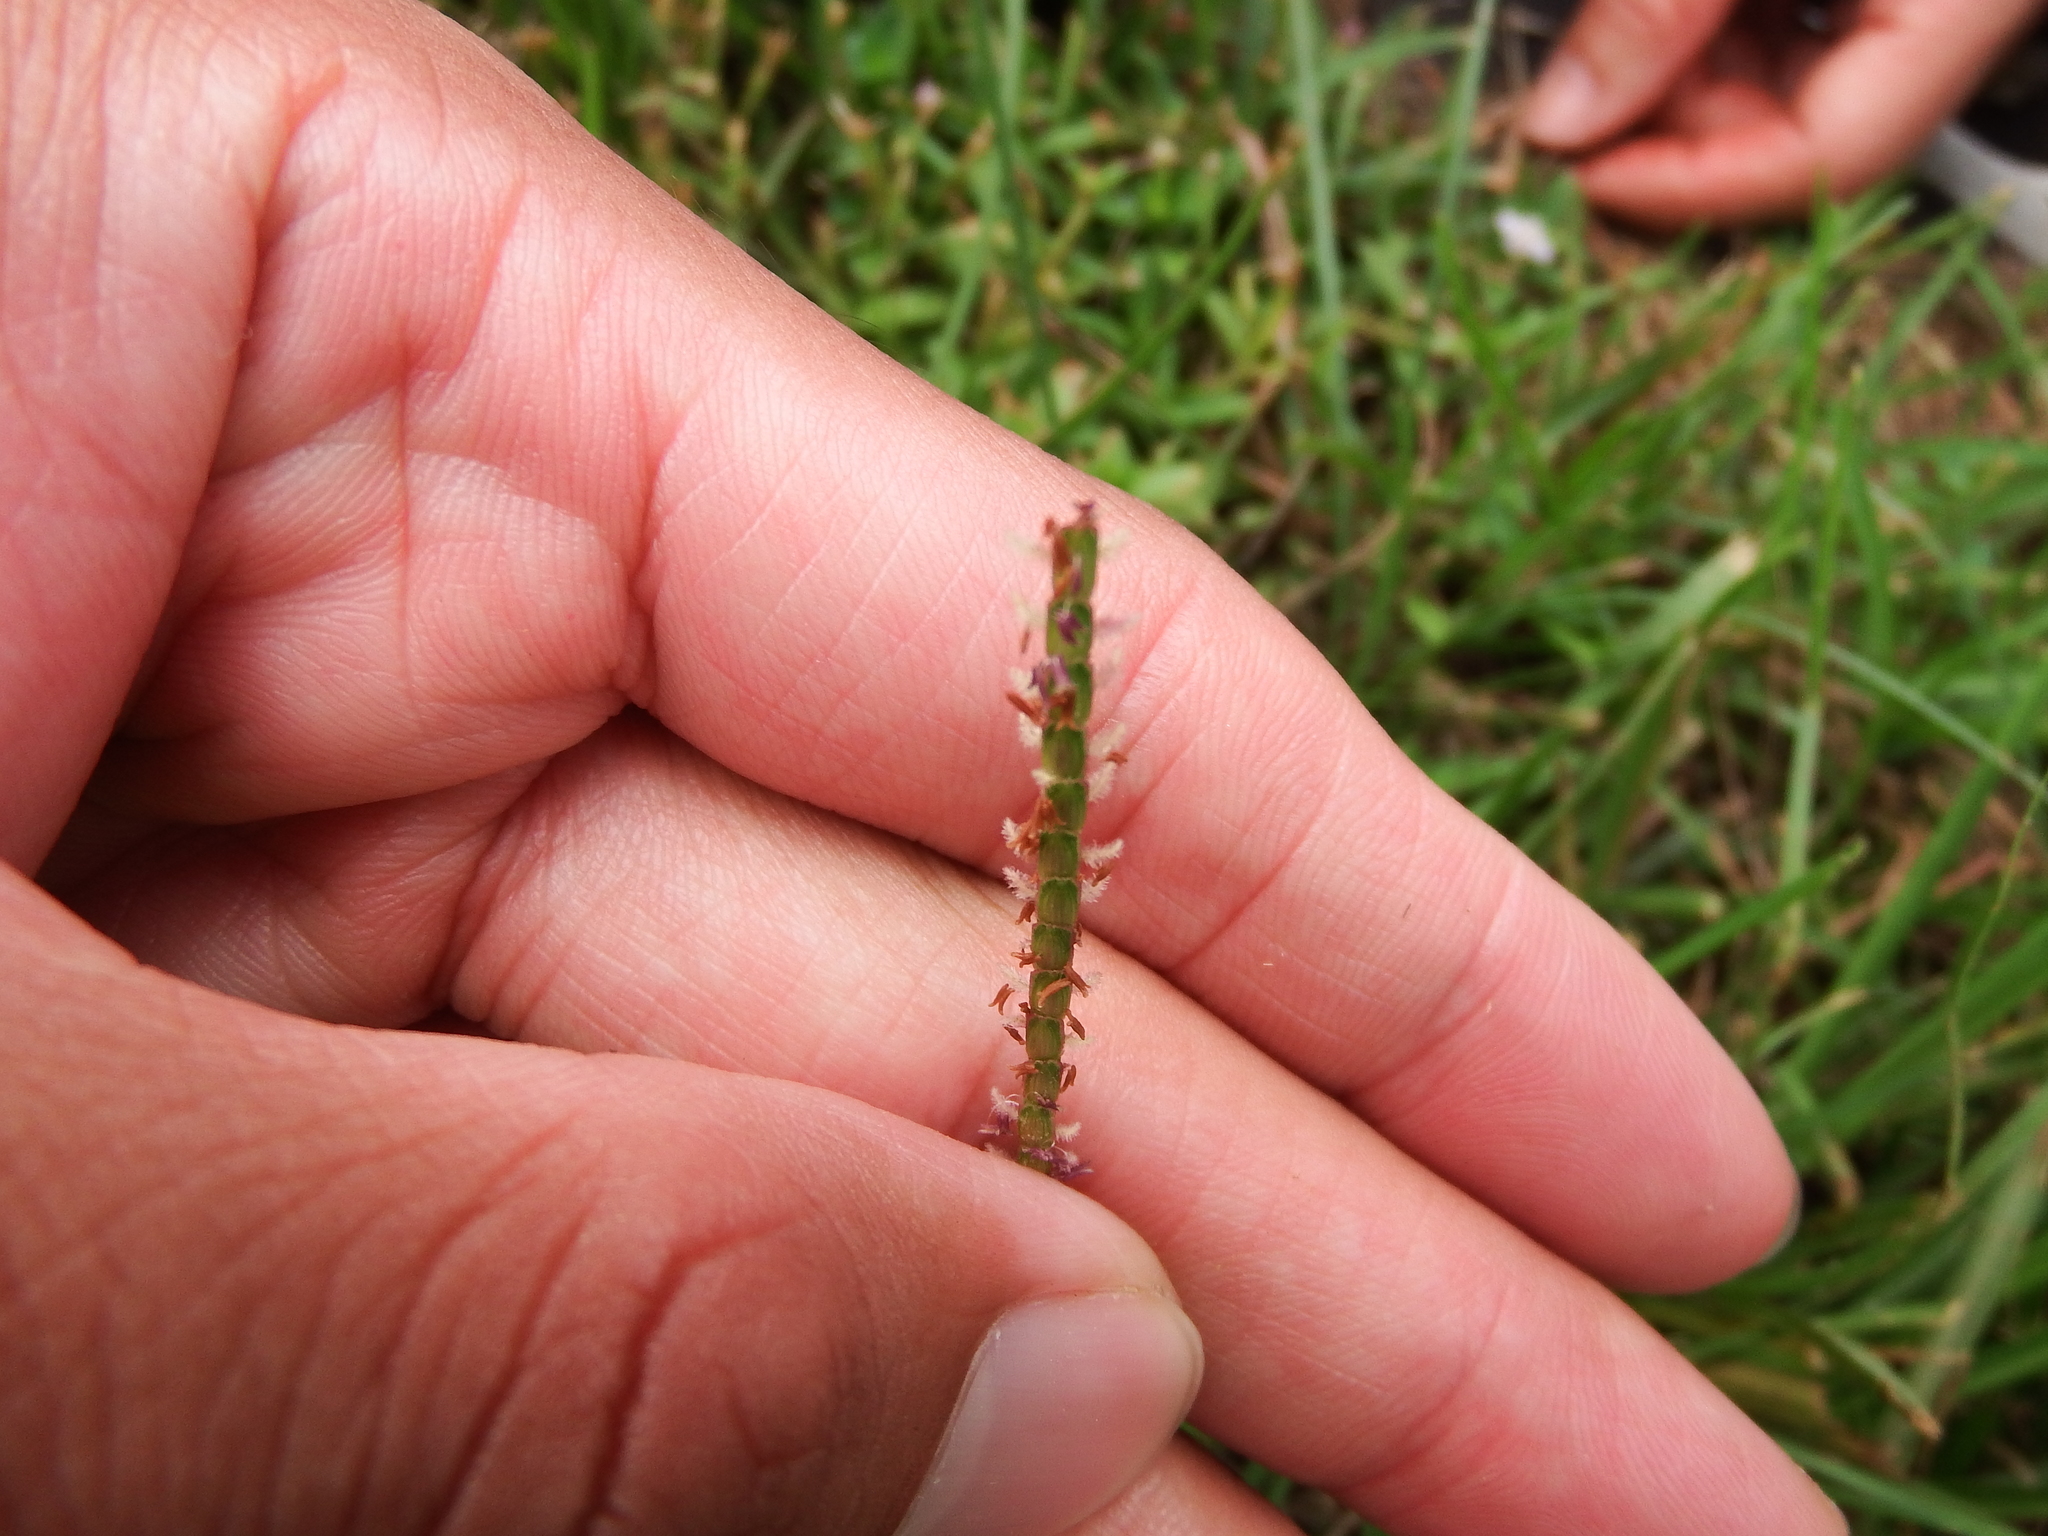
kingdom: Plantae
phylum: Tracheophyta
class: Liliopsida
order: Poales
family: Poaceae
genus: Eremochloa
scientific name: Eremochloa ophiuroides
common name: Centipede grass
